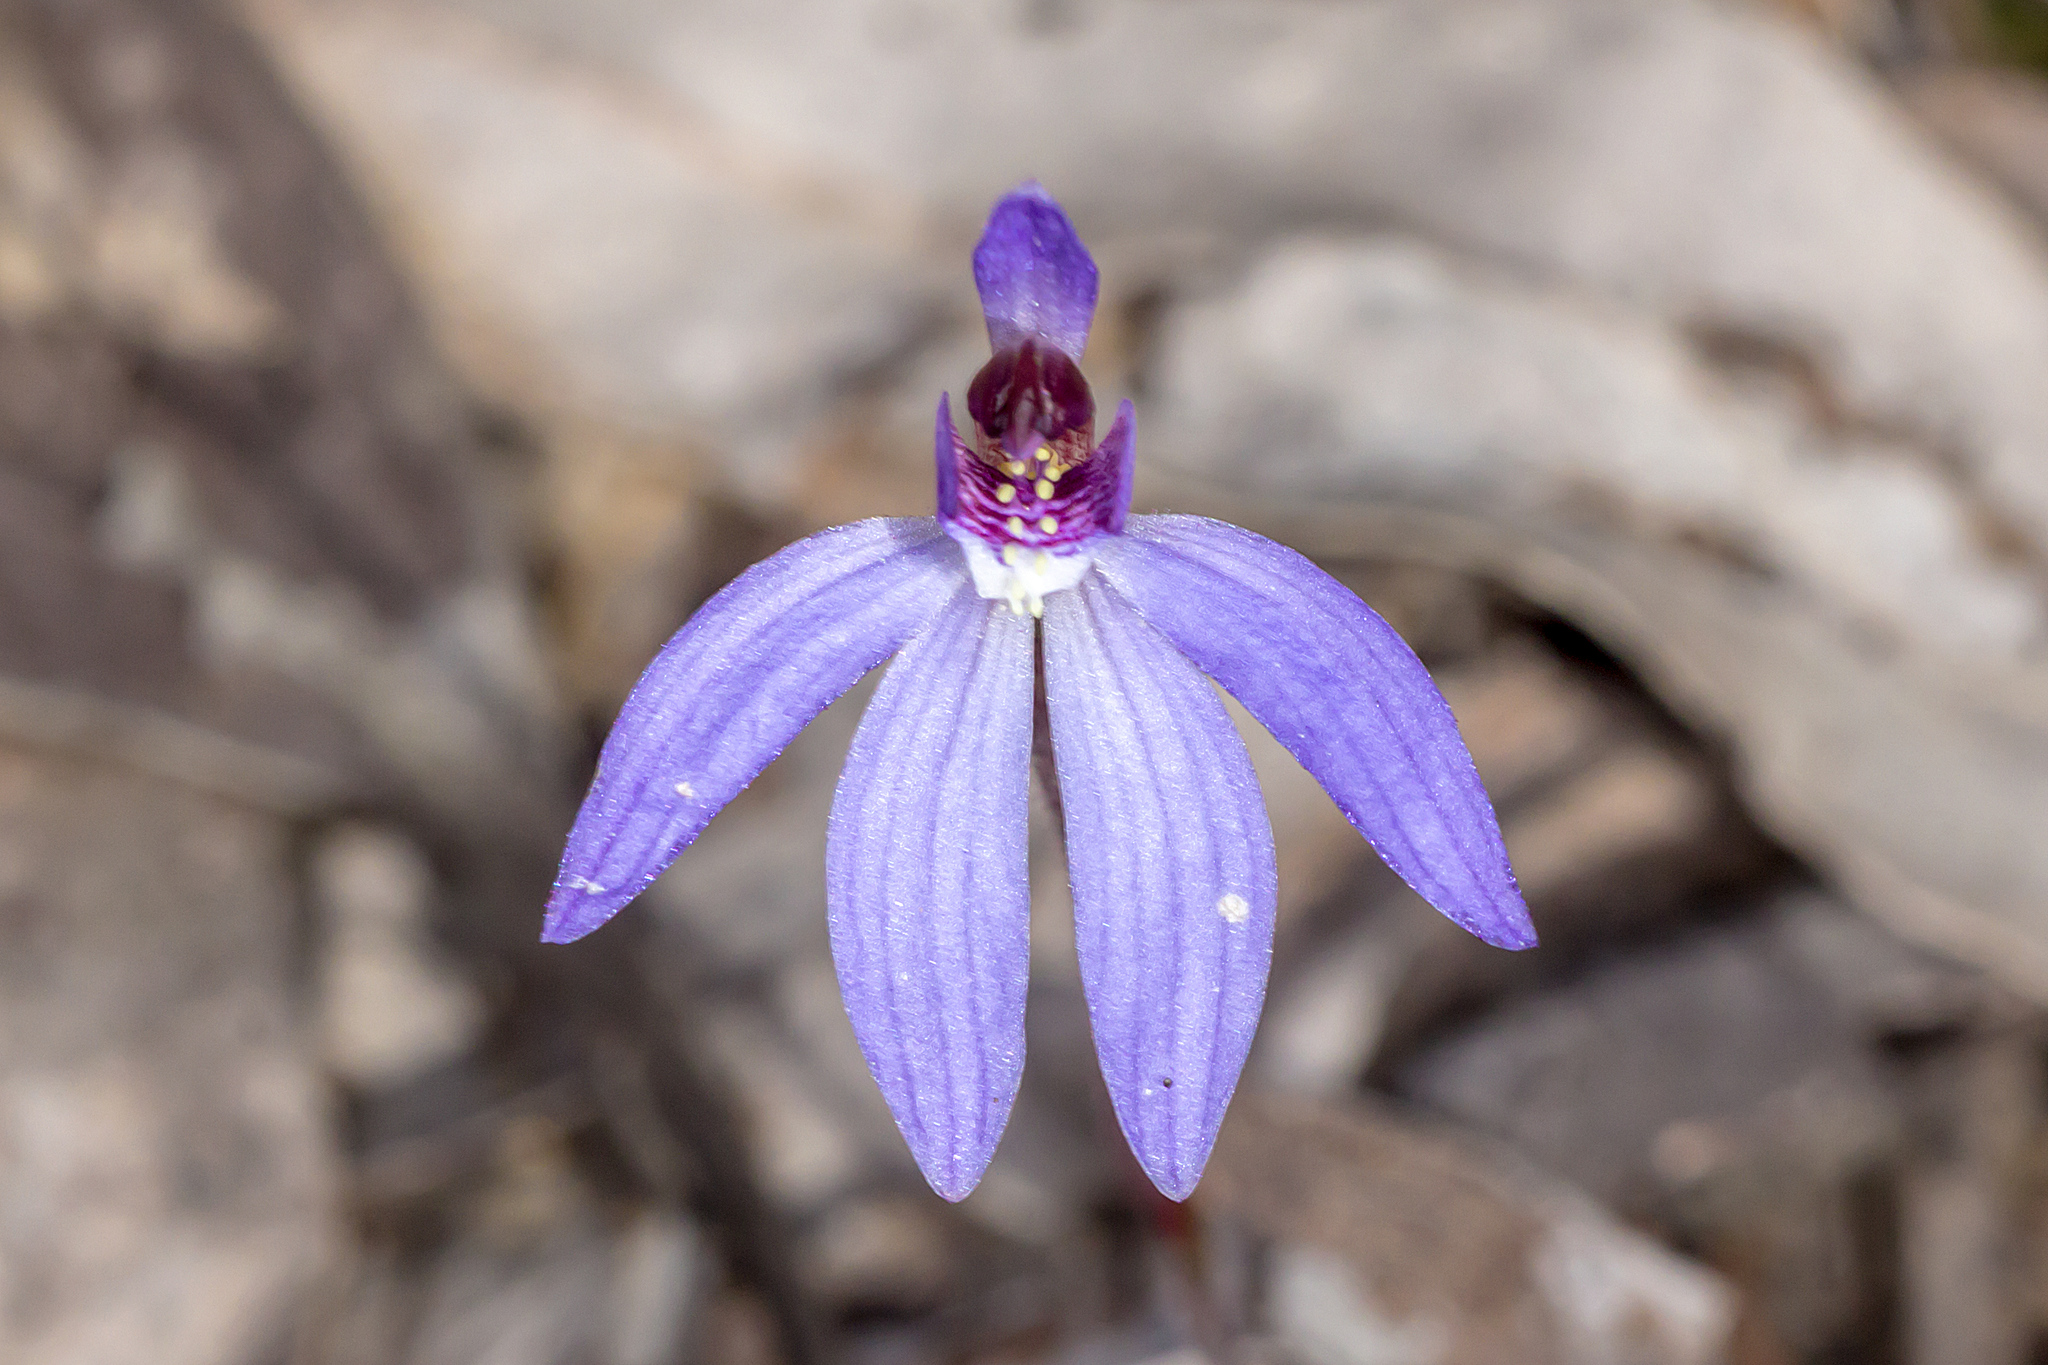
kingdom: Plantae
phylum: Tracheophyta
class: Liliopsida
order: Asparagales
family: Orchidaceae
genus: Caladenia
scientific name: Caladenia caerulea
